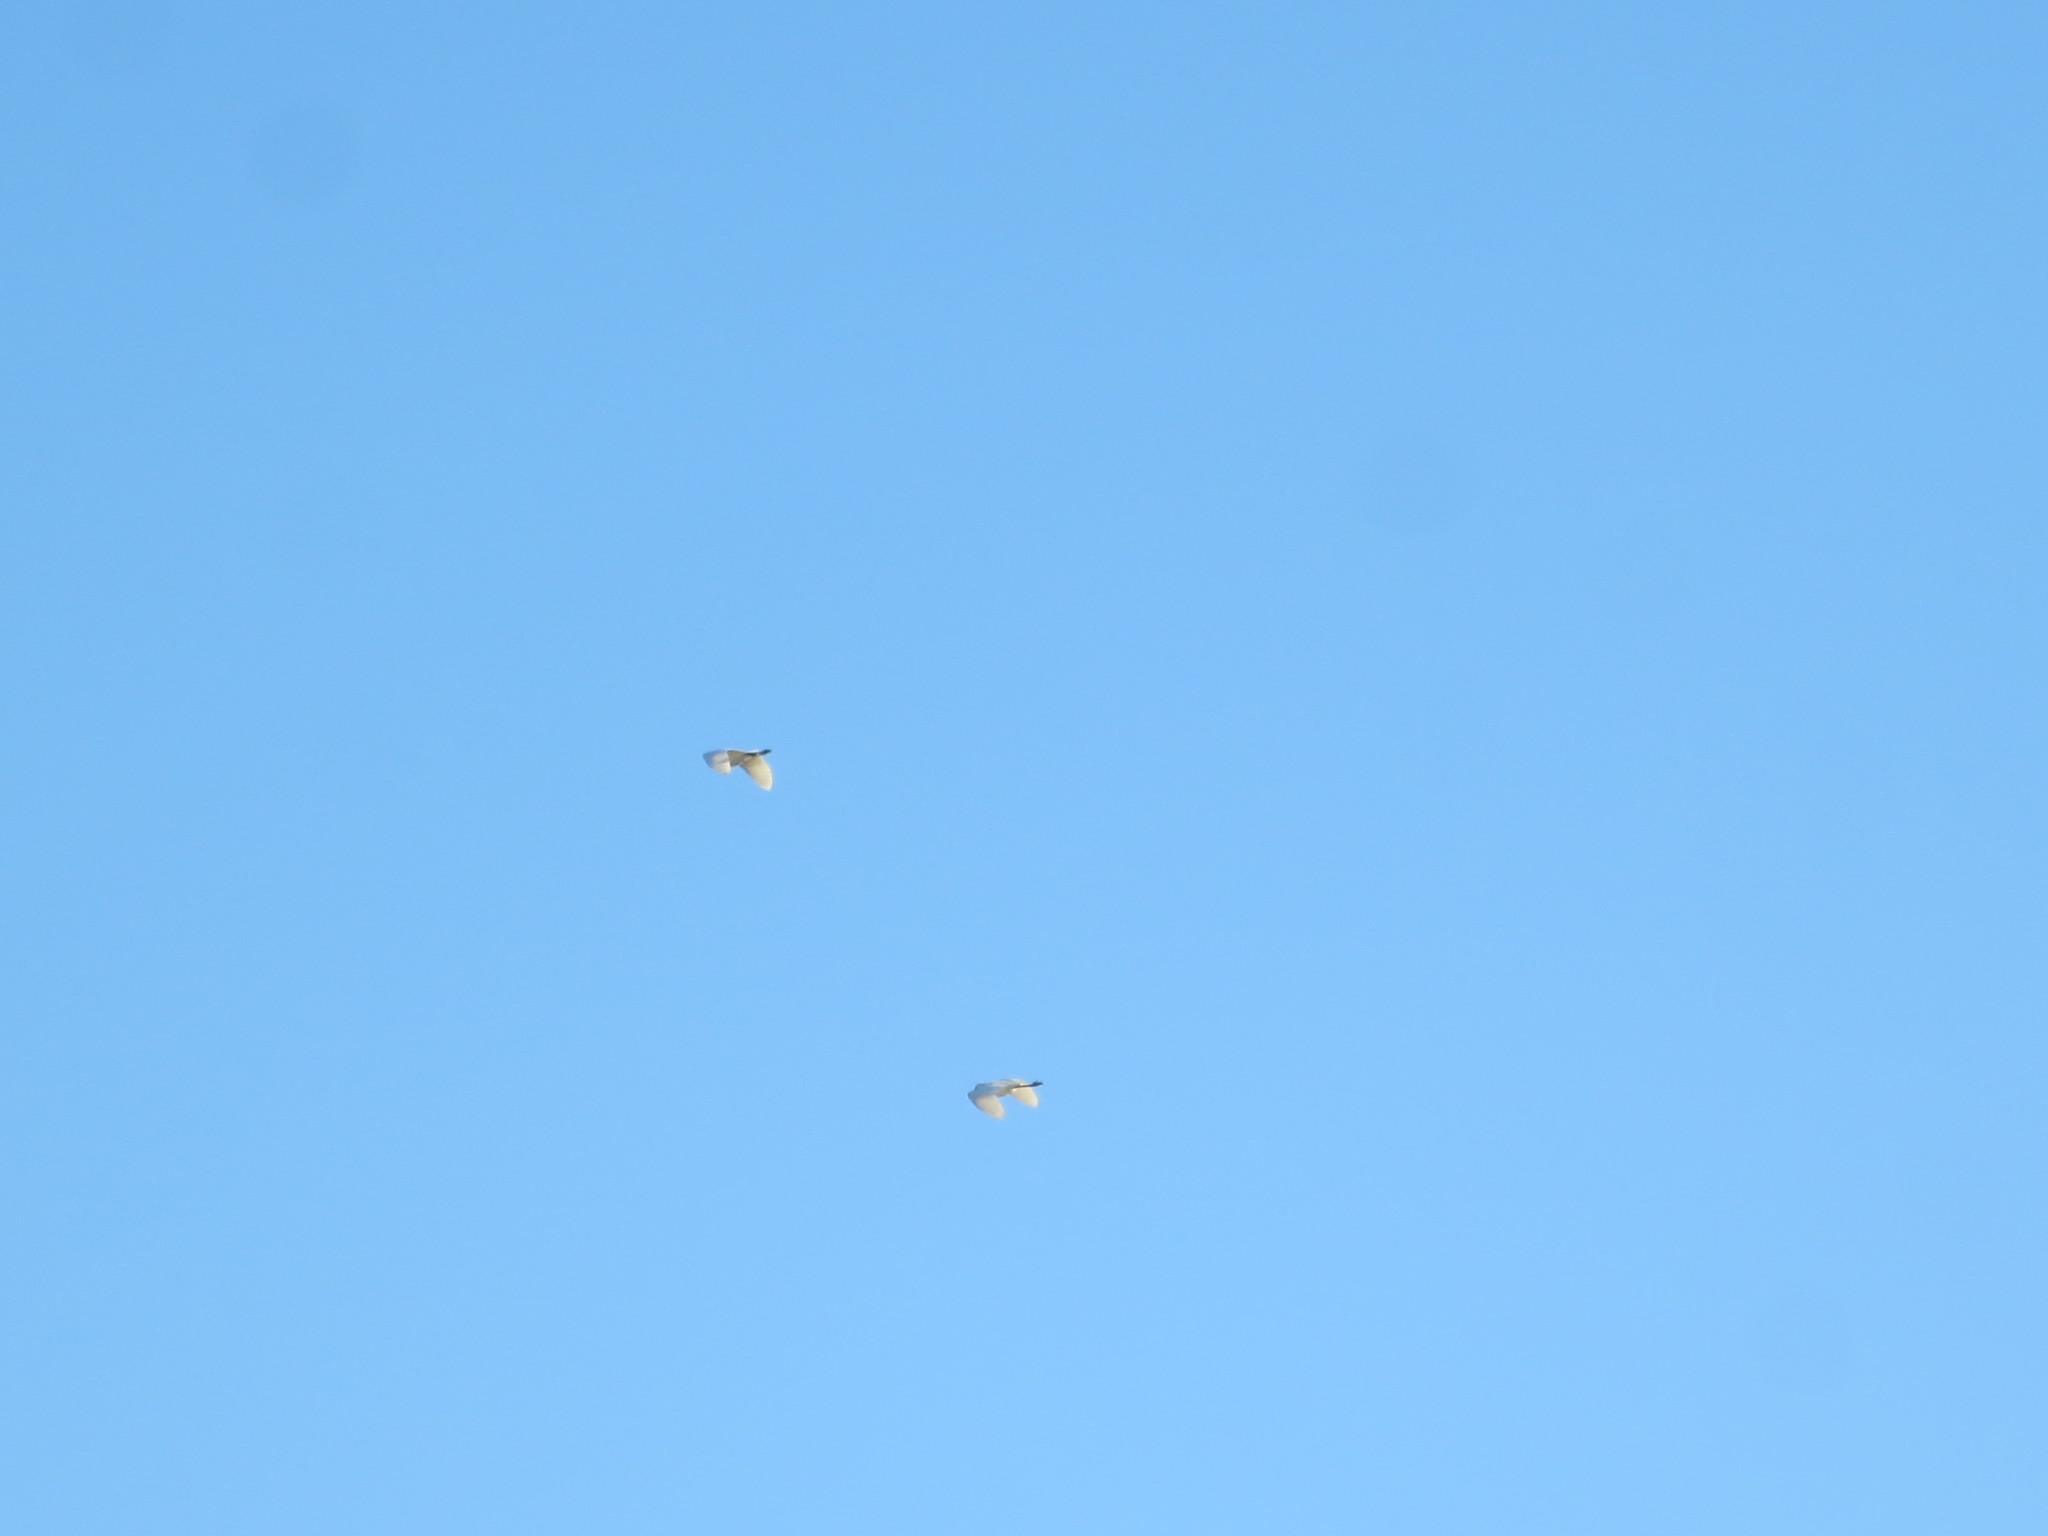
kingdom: Animalia
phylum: Chordata
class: Aves
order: Pelecaniformes
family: Ardeidae
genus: Ardea
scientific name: Ardea alba
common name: Great egret
